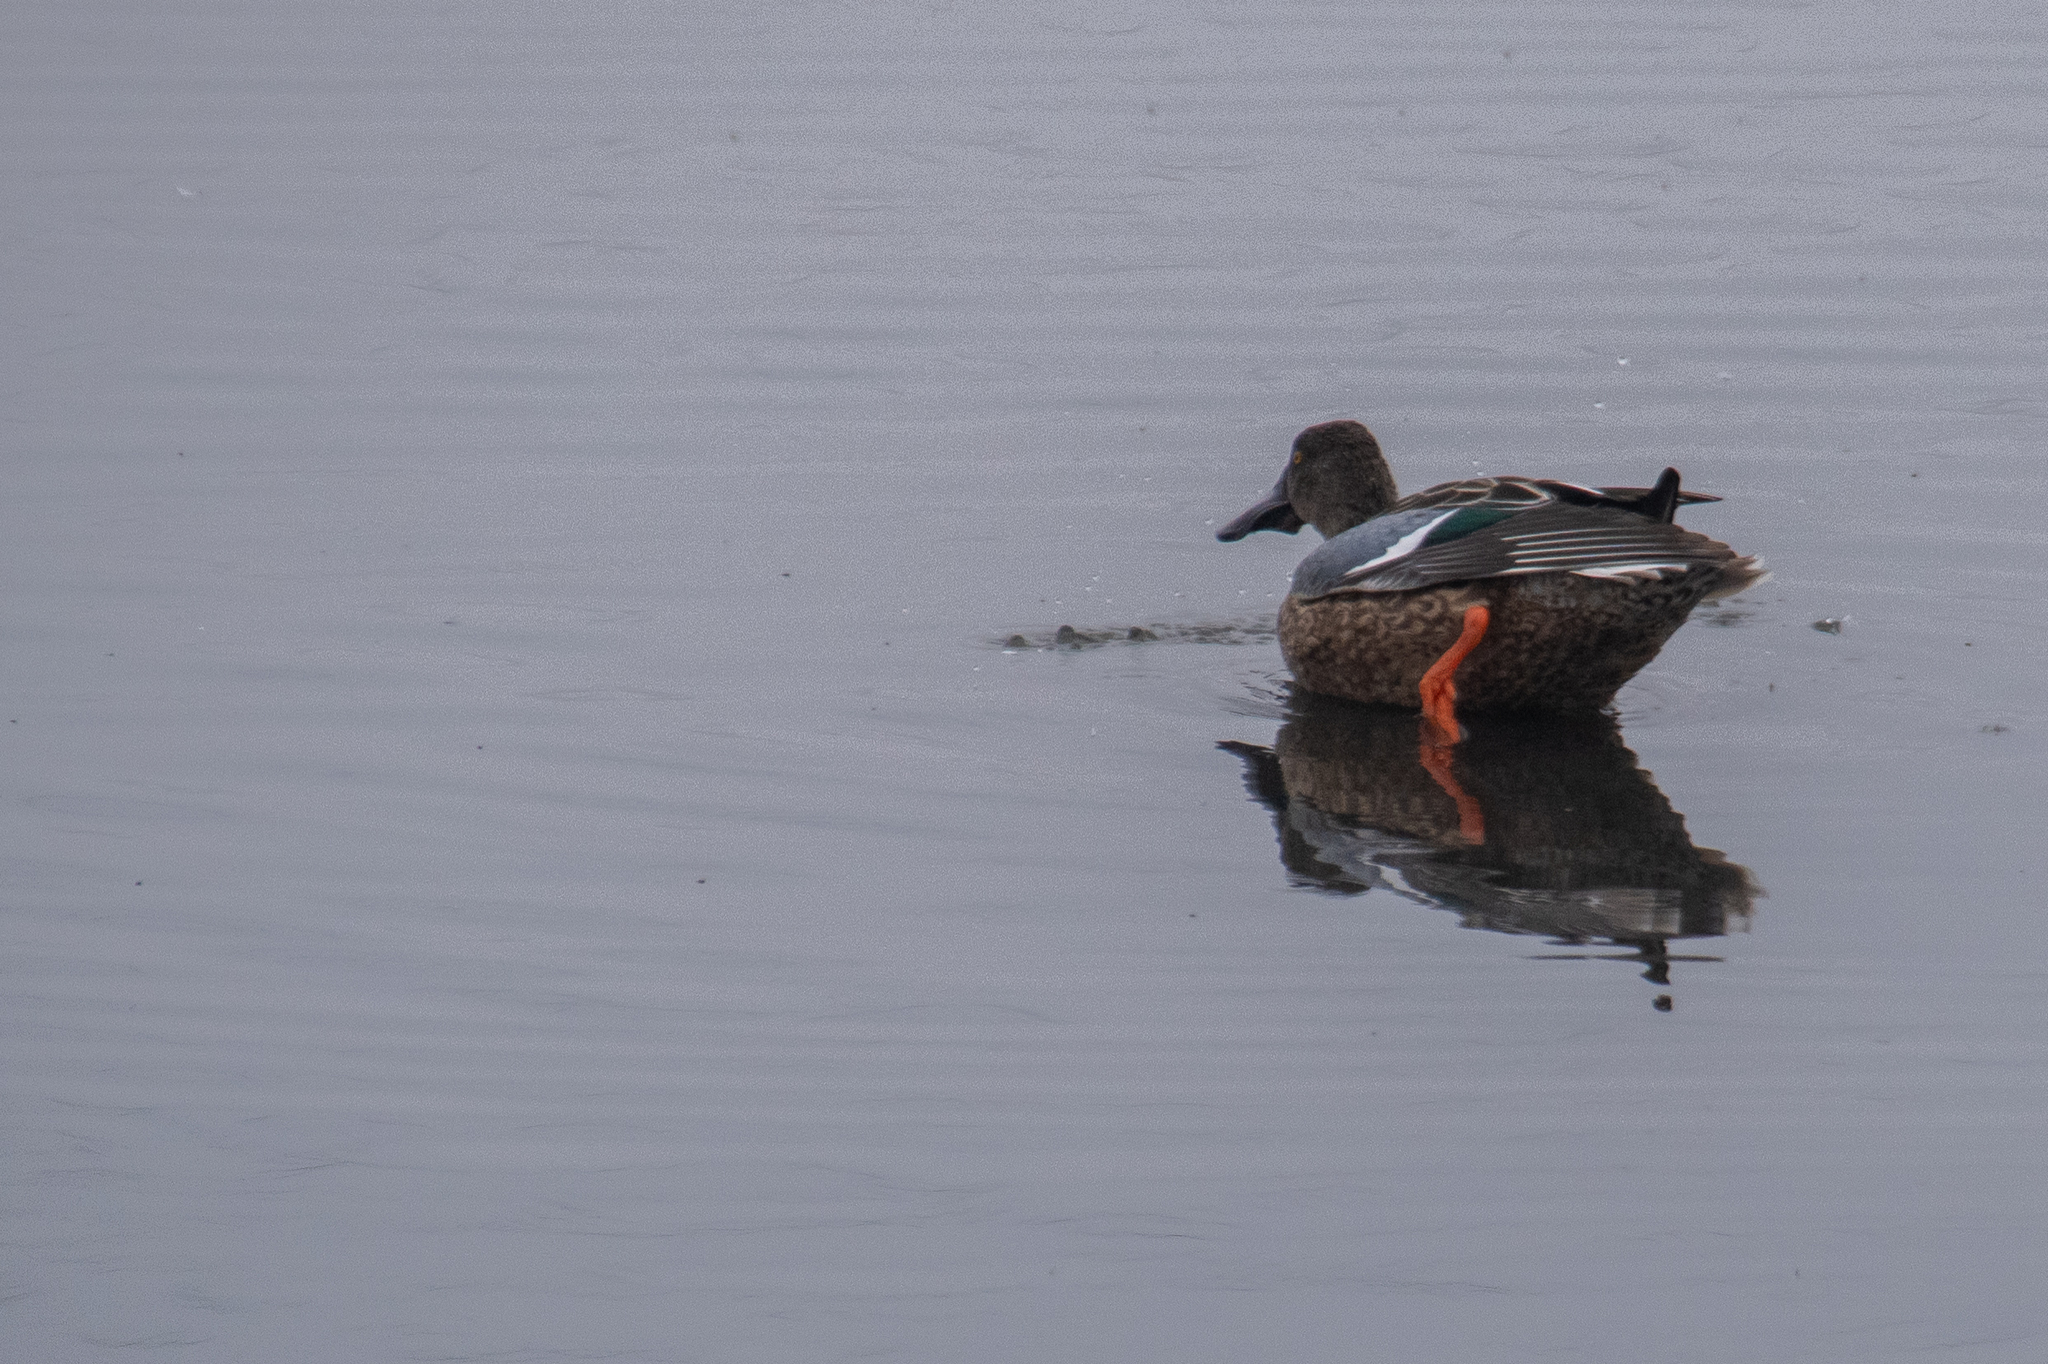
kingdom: Animalia
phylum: Chordata
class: Aves
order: Anseriformes
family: Anatidae
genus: Spatula
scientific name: Spatula clypeata
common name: Northern shoveler
